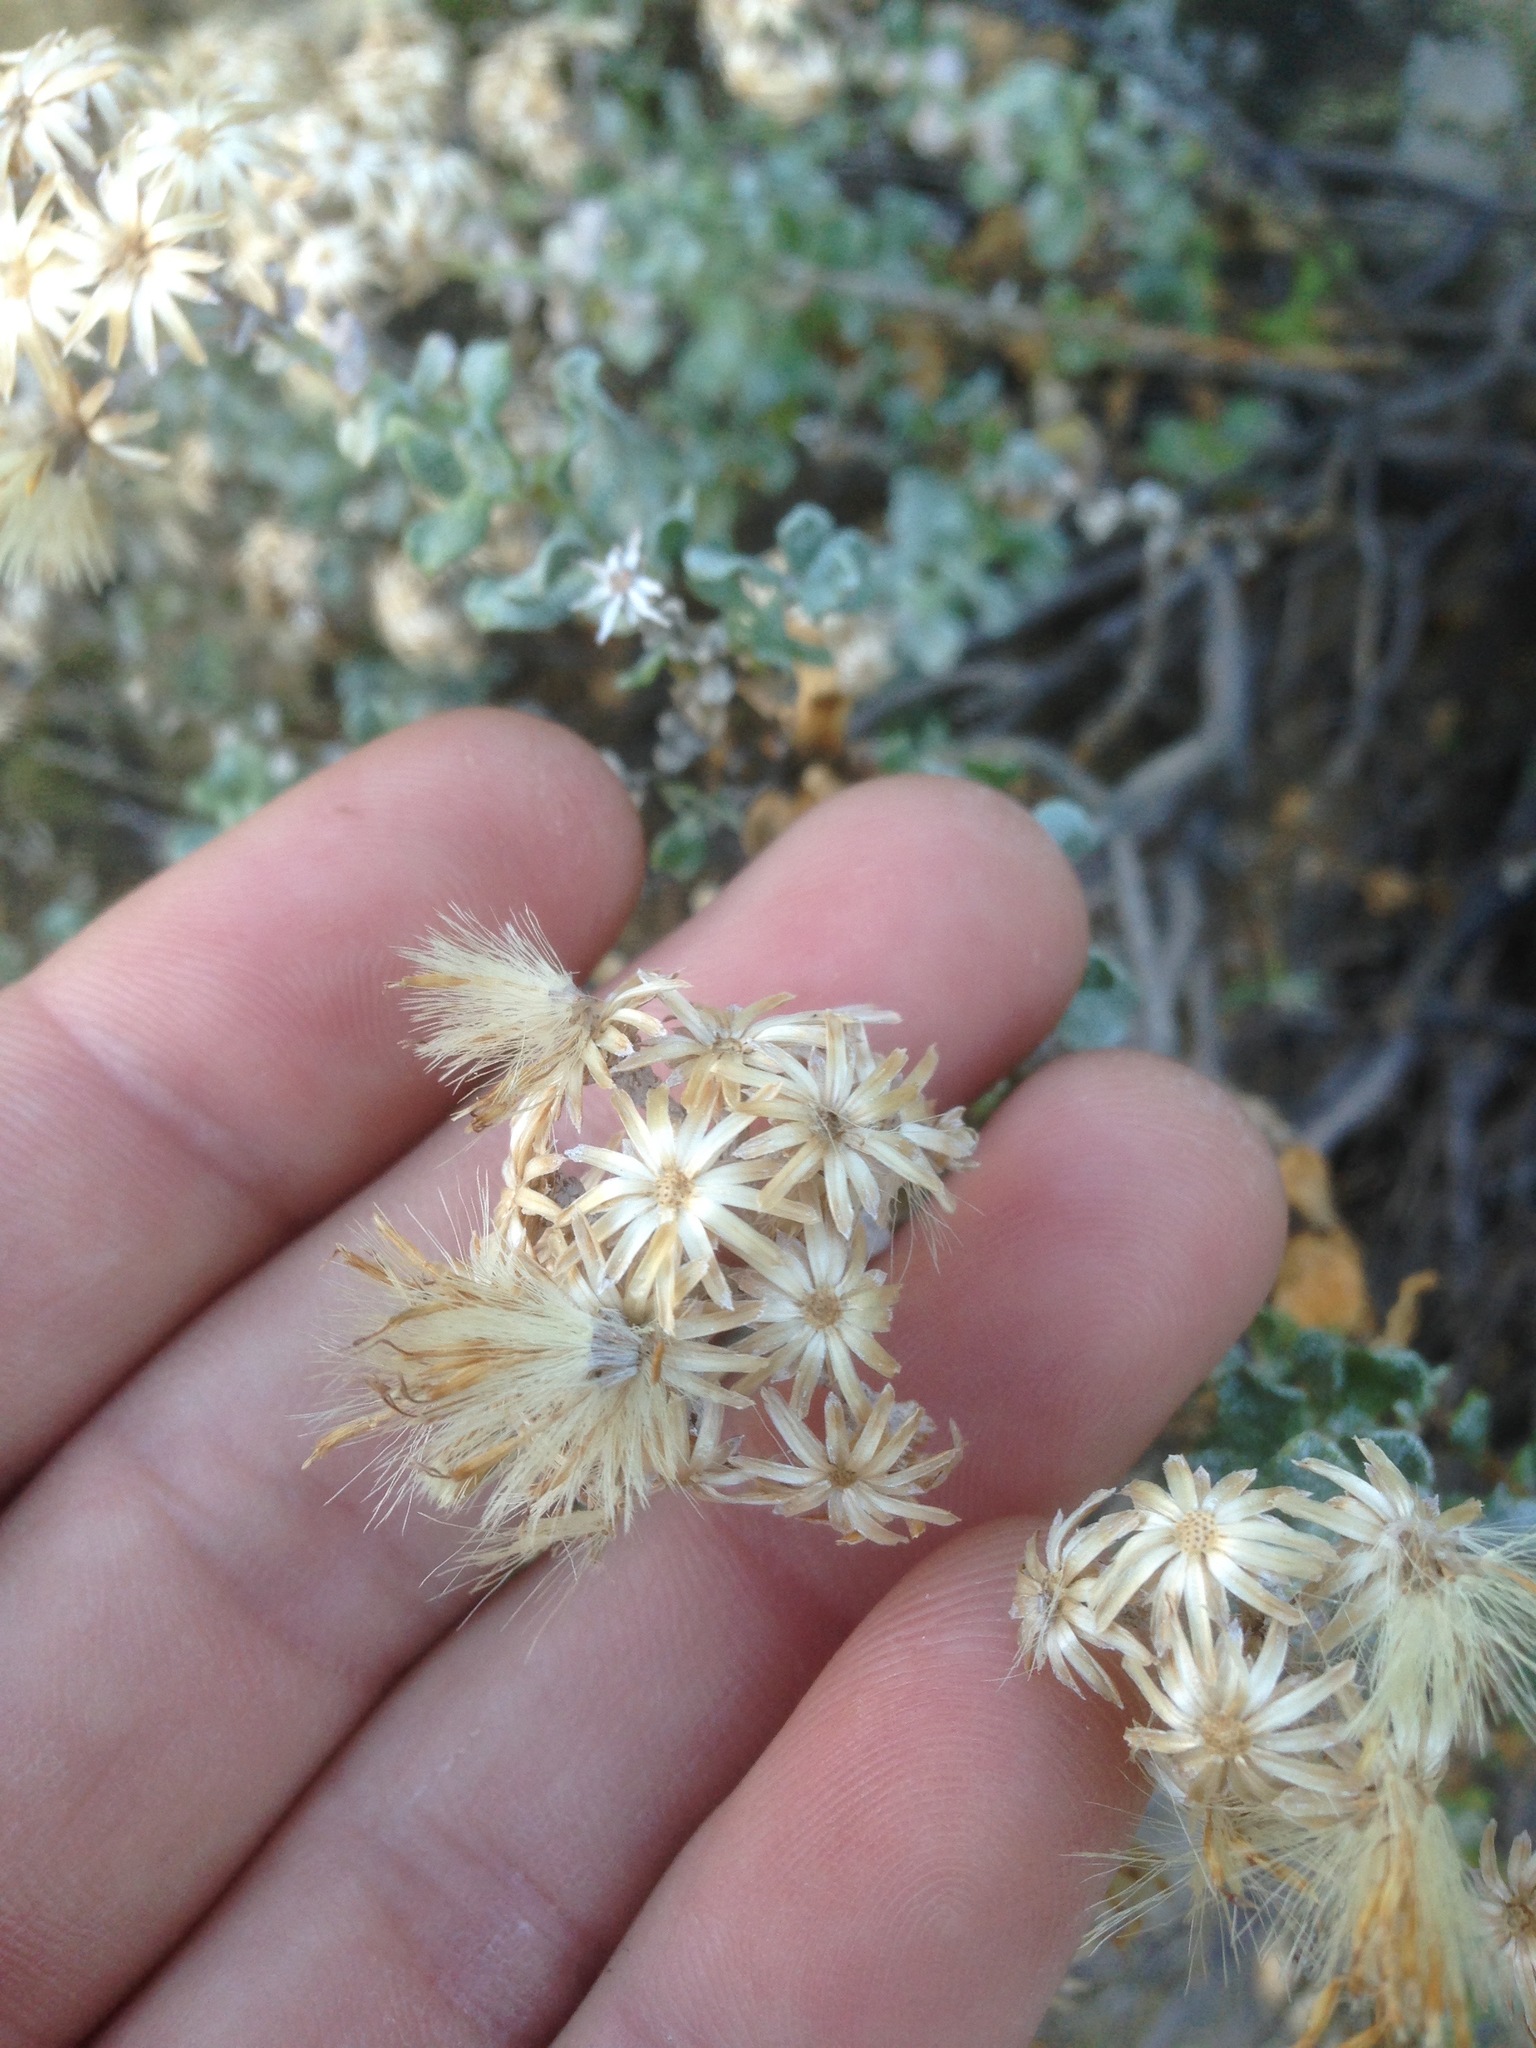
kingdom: Plantae
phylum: Tracheophyta
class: Magnoliopsida
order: Asterales
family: Asteraceae
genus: Ericameria
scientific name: Ericameria cuneata
